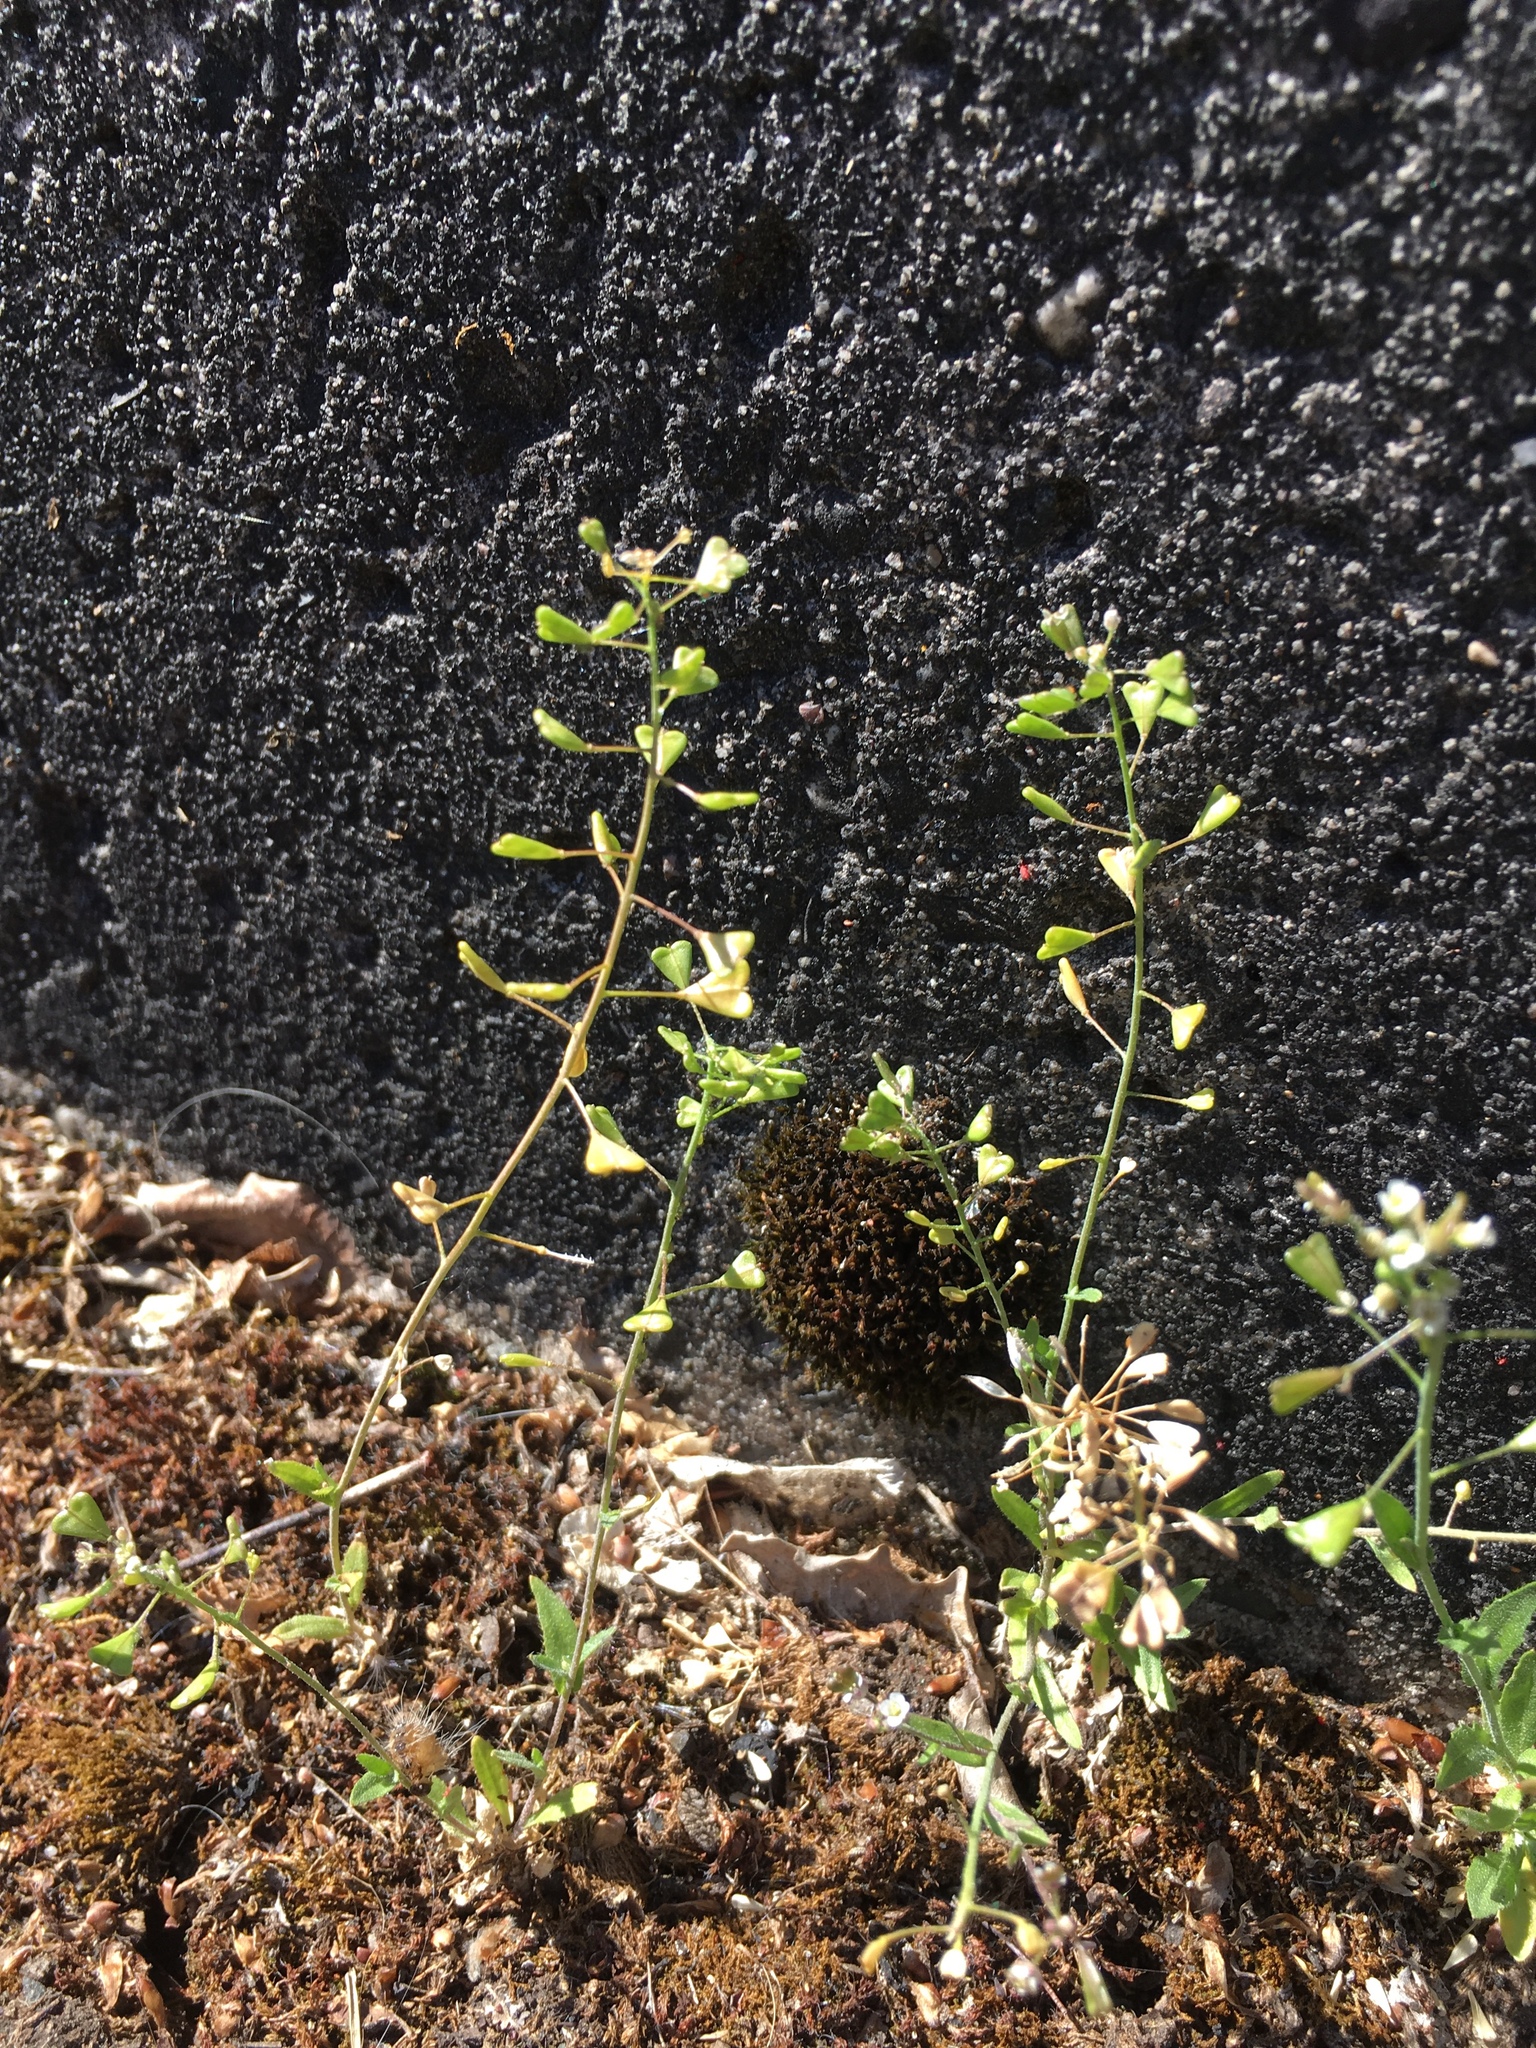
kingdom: Plantae
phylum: Tracheophyta
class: Magnoliopsida
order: Brassicales
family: Brassicaceae
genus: Capsella
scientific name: Capsella bursa-pastoris
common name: Shepherd's purse
